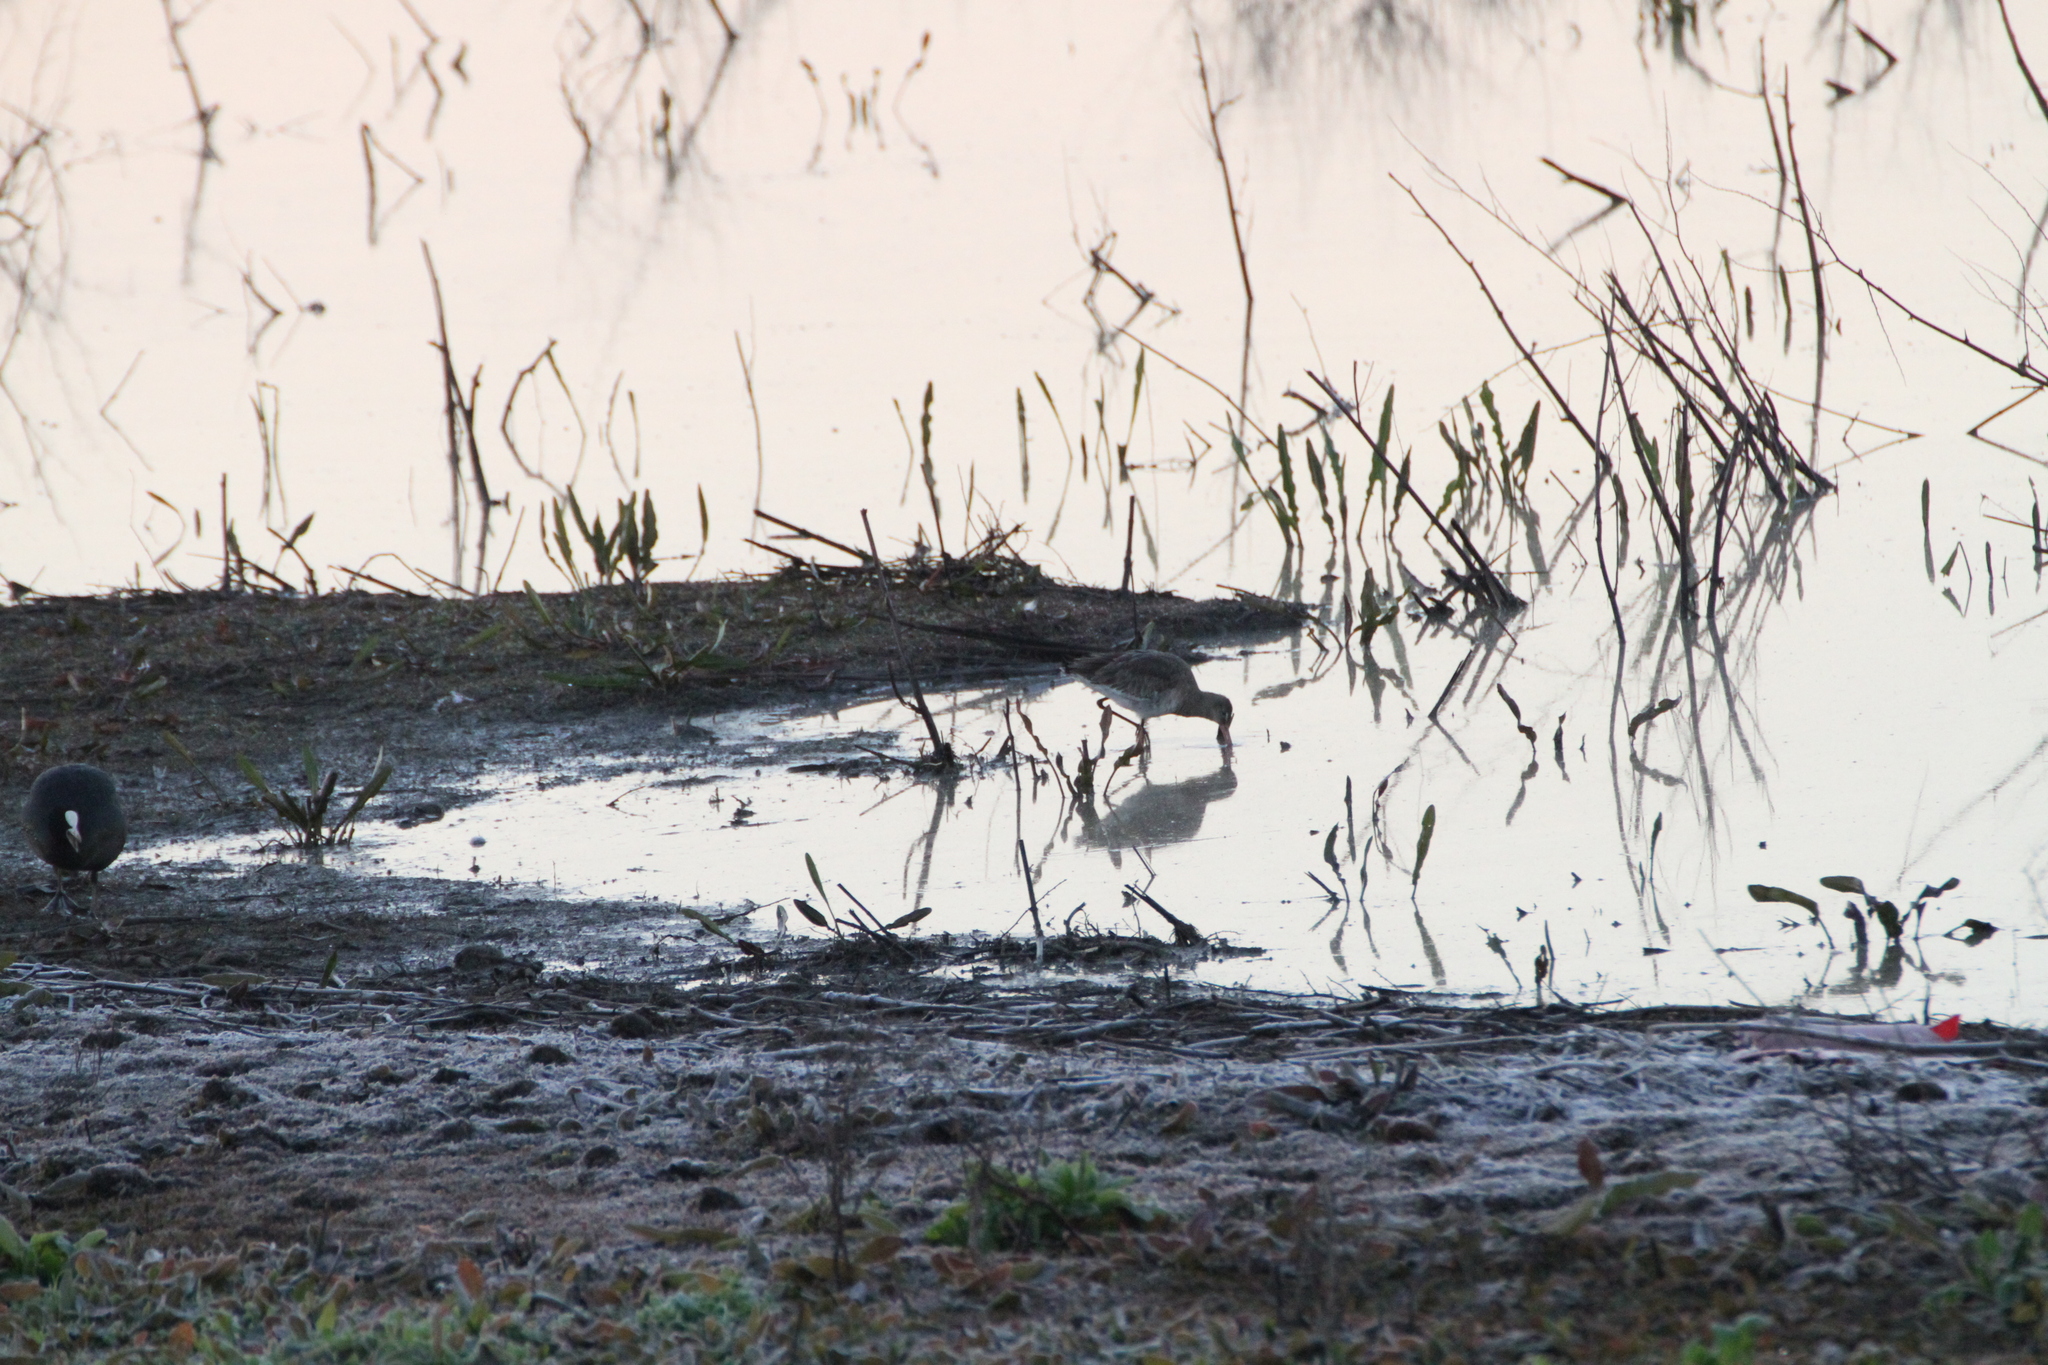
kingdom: Animalia
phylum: Chordata
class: Aves
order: Charadriiformes
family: Scolopacidae
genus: Limosa
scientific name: Limosa limosa
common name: Black-tailed godwit
